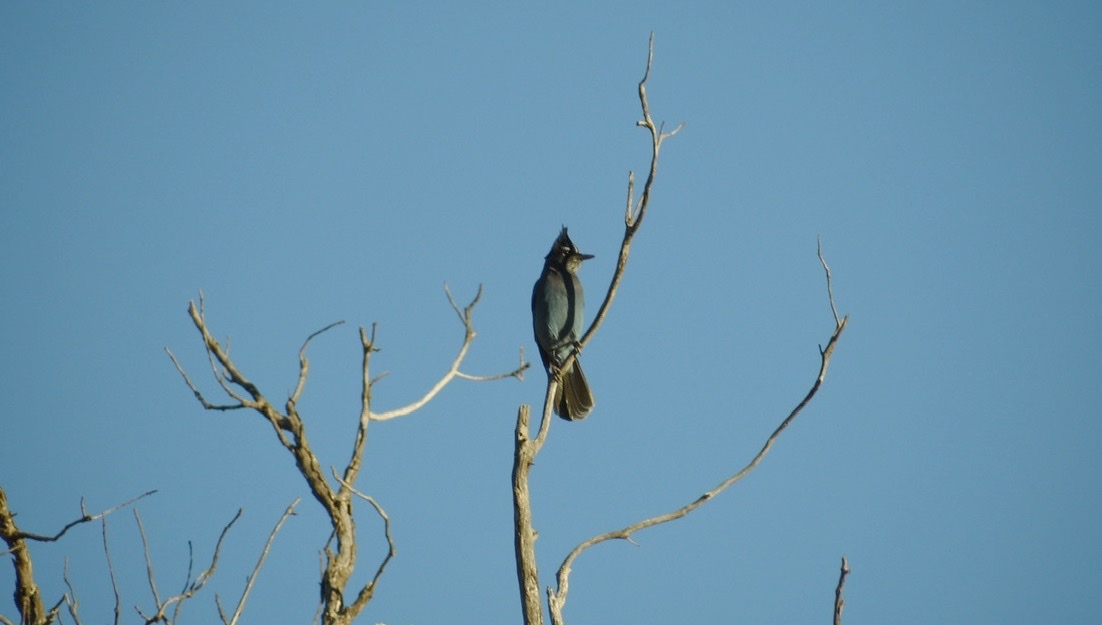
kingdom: Animalia
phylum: Chordata
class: Aves
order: Passeriformes
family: Corvidae
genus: Cyanocitta
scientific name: Cyanocitta stelleri
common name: Steller's jay
